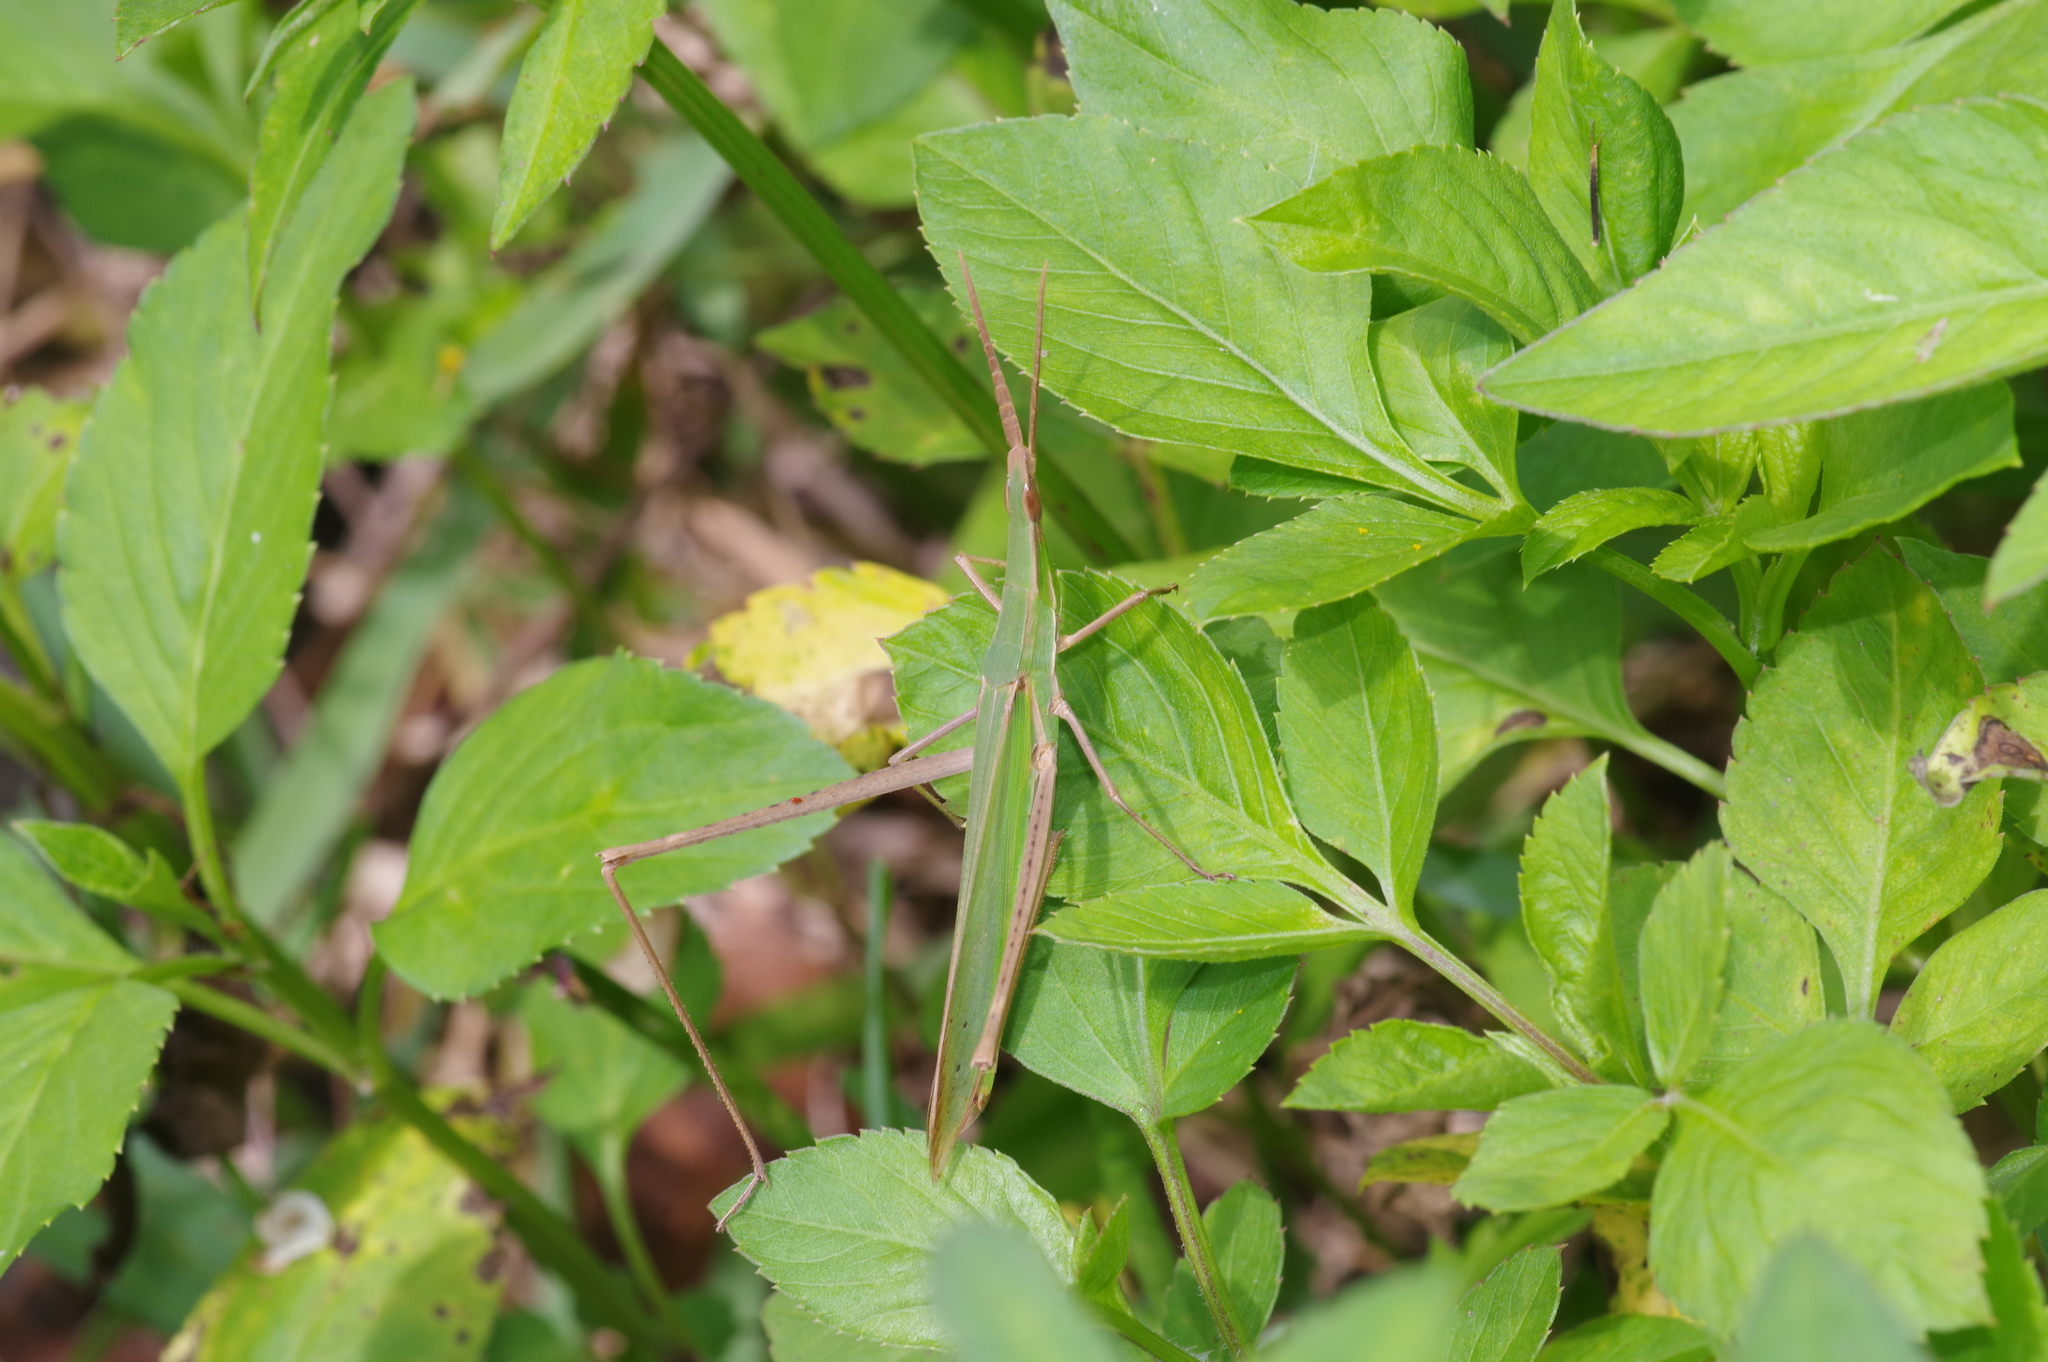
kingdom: Animalia
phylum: Arthropoda
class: Insecta
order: Orthoptera
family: Acrididae
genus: Acrida
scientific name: Acrida cinerea
